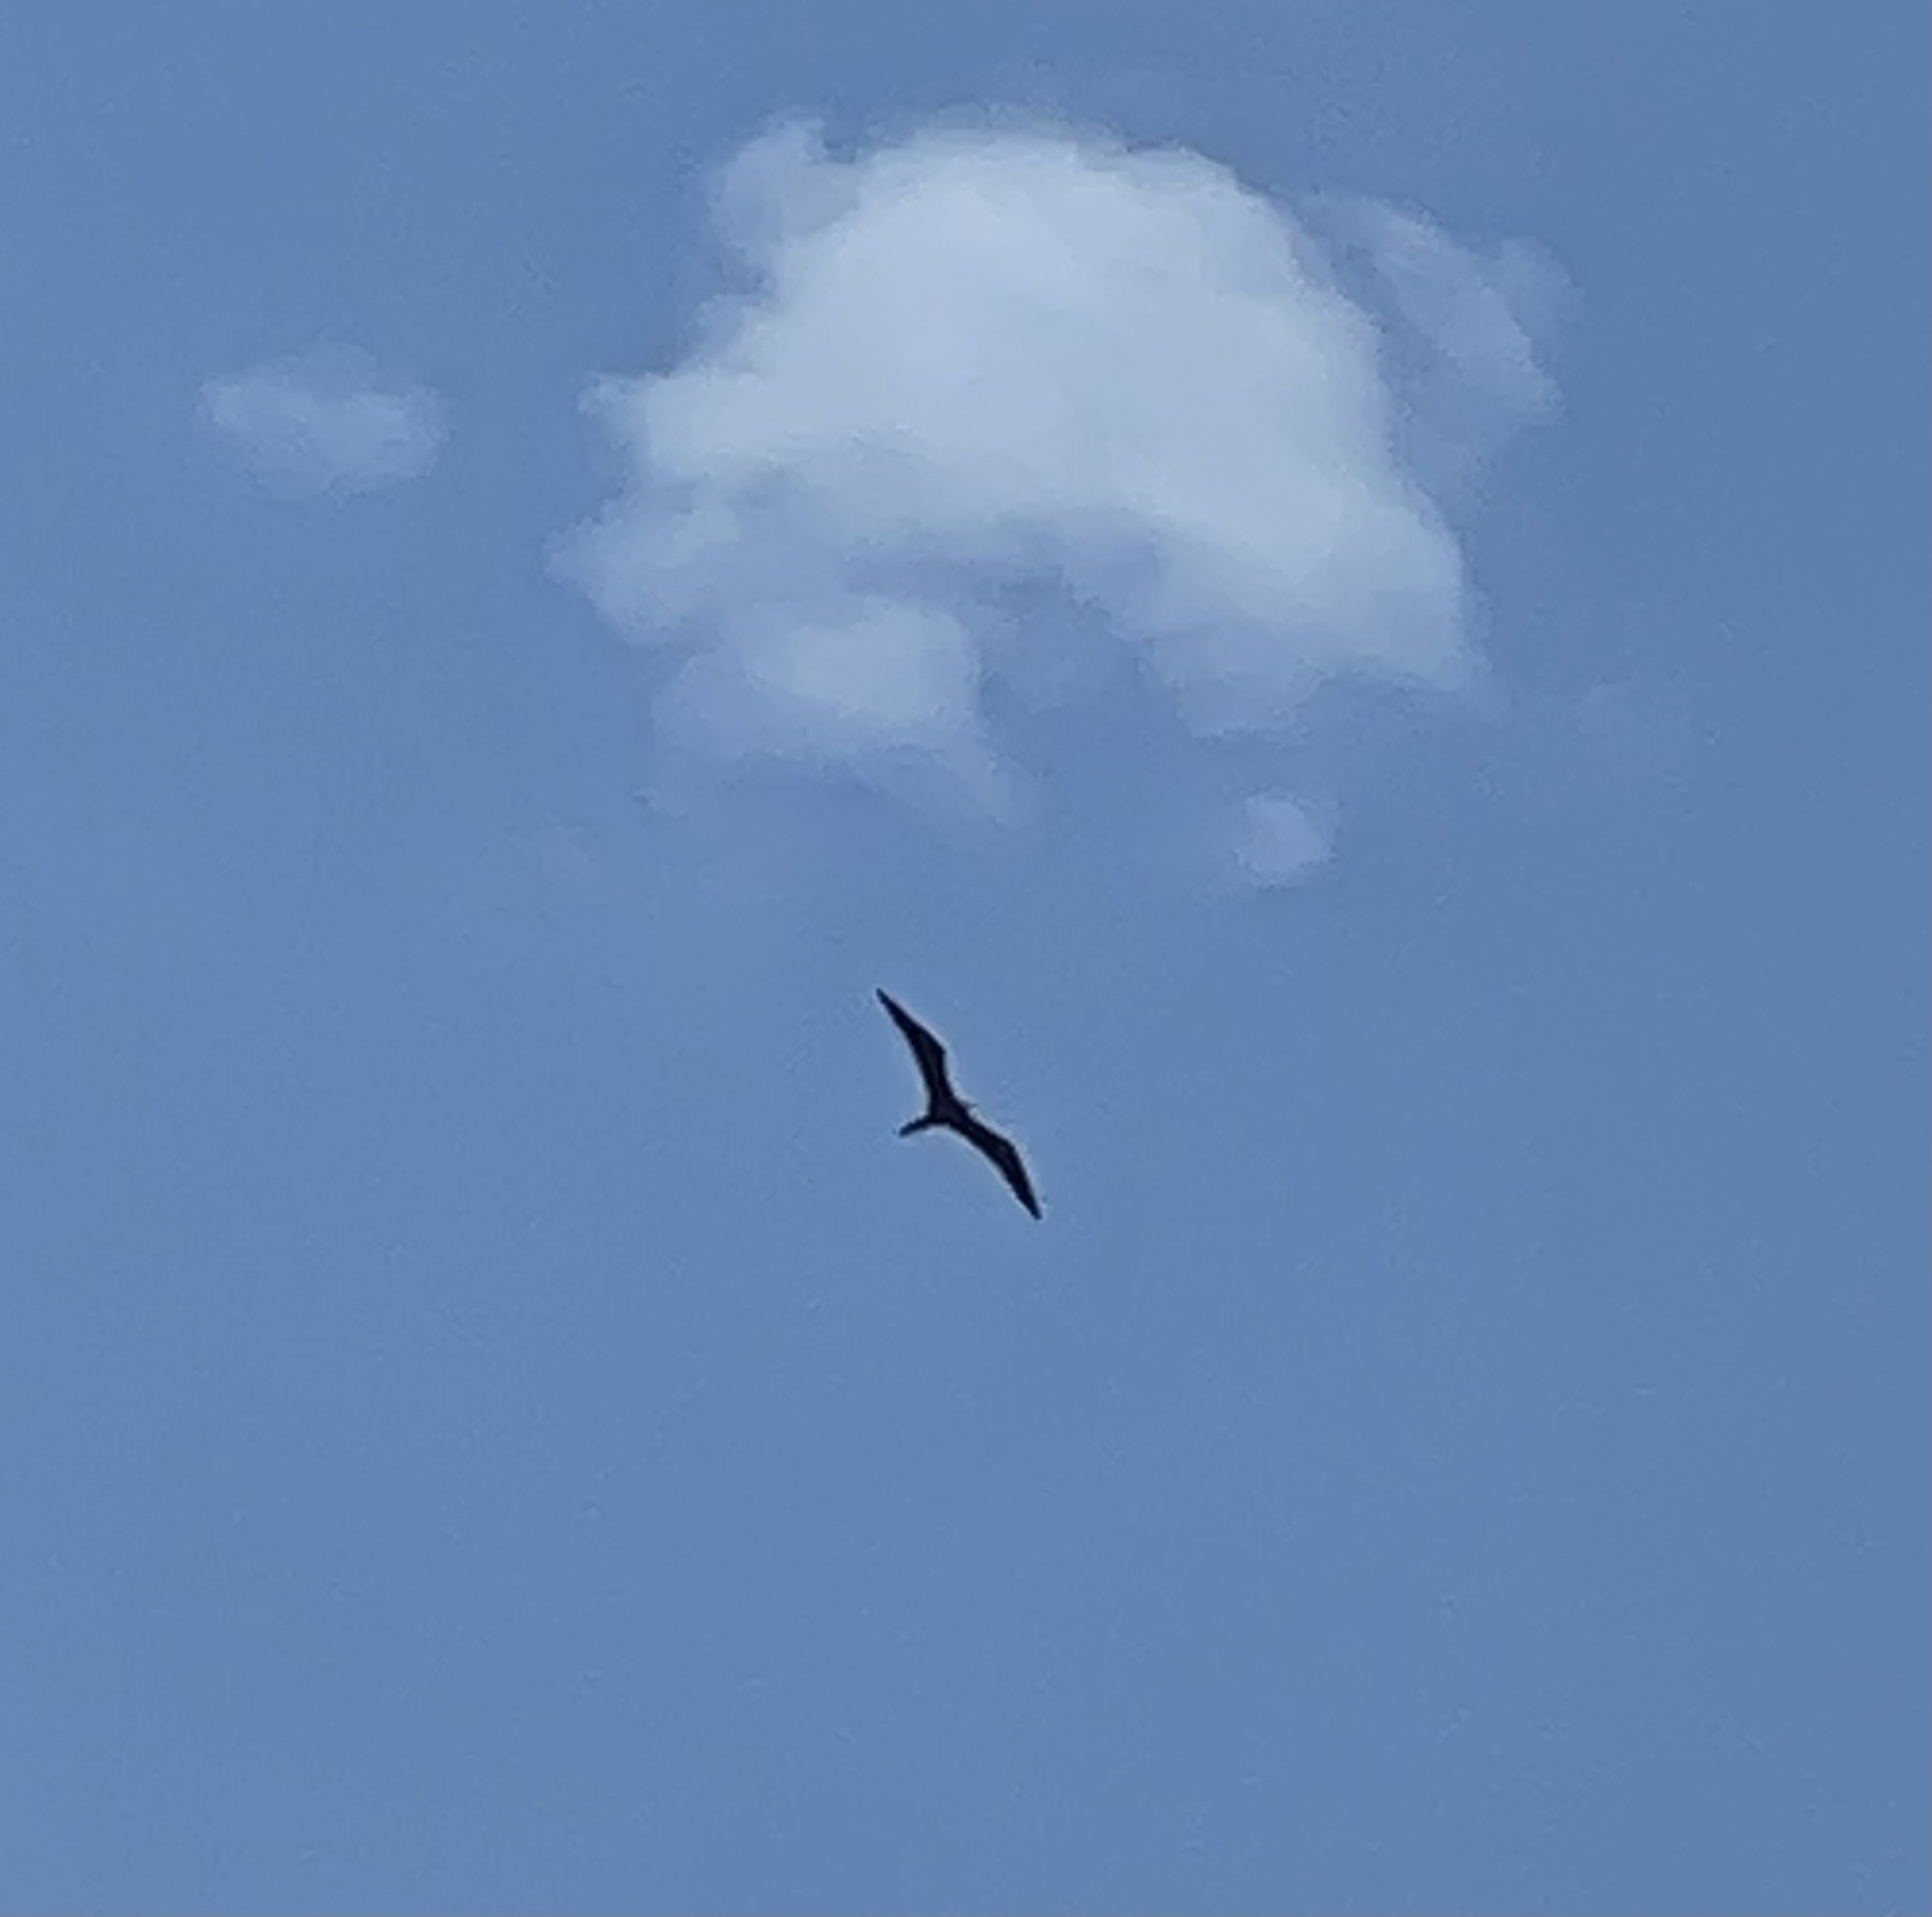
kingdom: Animalia
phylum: Chordata
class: Aves
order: Suliformes
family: Fregatidae
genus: Fregata
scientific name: Fregata magnificens
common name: Magnificent frigatebird
